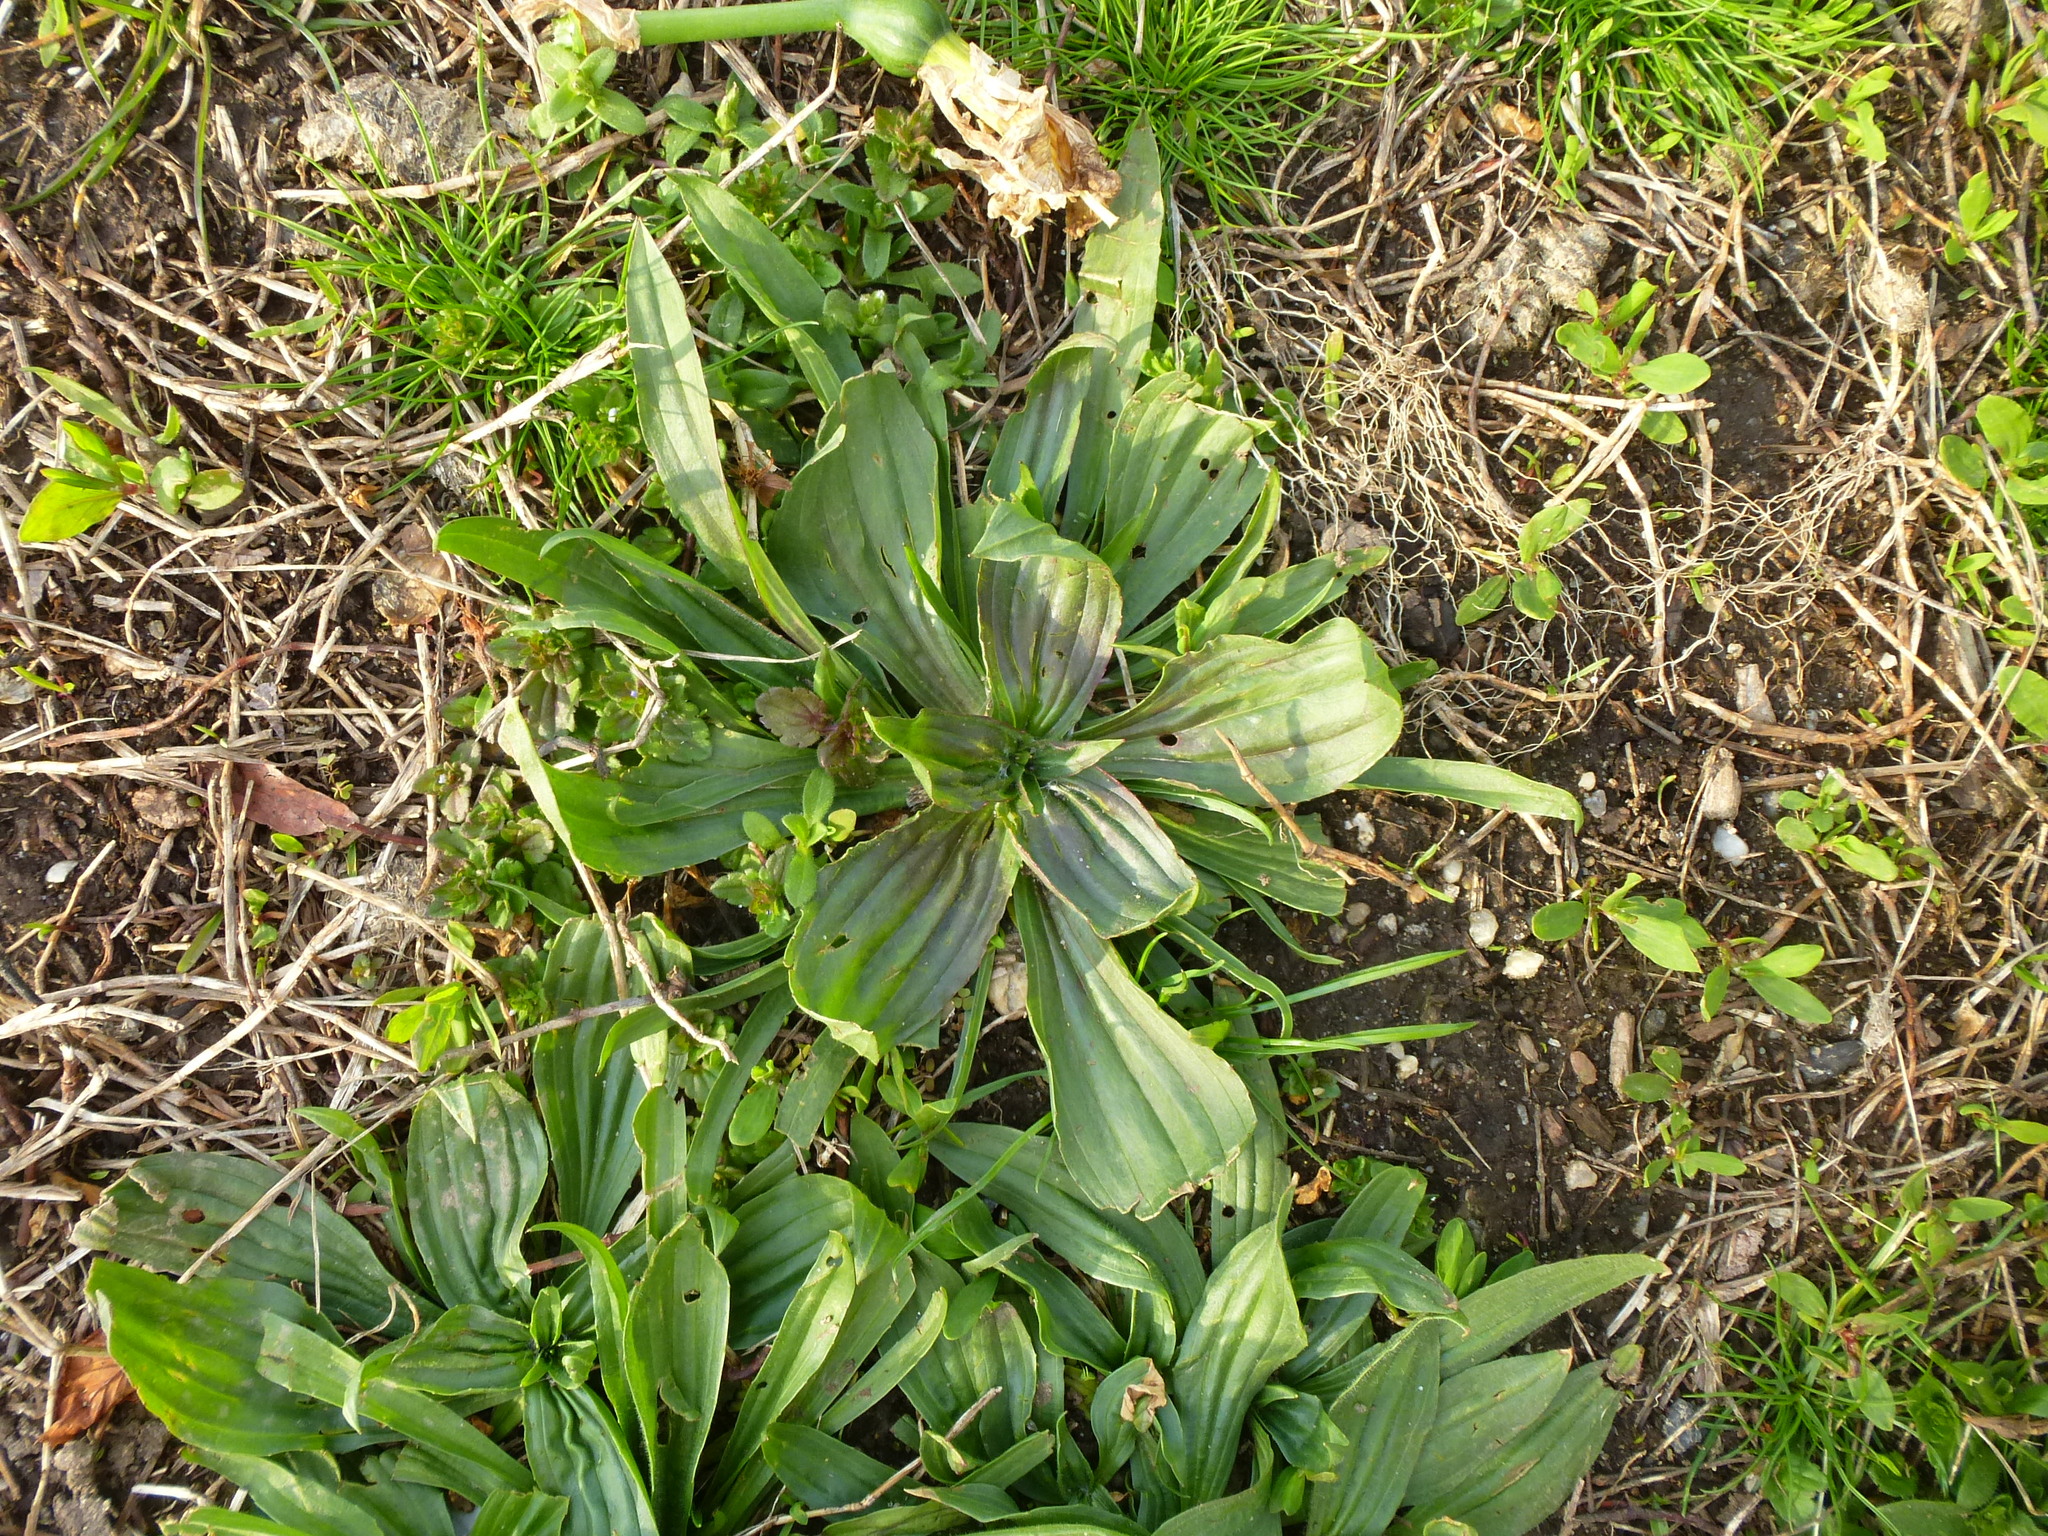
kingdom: Plantae
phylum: Tracheophyta
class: Magnoliopsida
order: Lamiales
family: Plantaginaceae
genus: Plantago
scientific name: Plantago lanceolata
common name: Ribwort plantain
